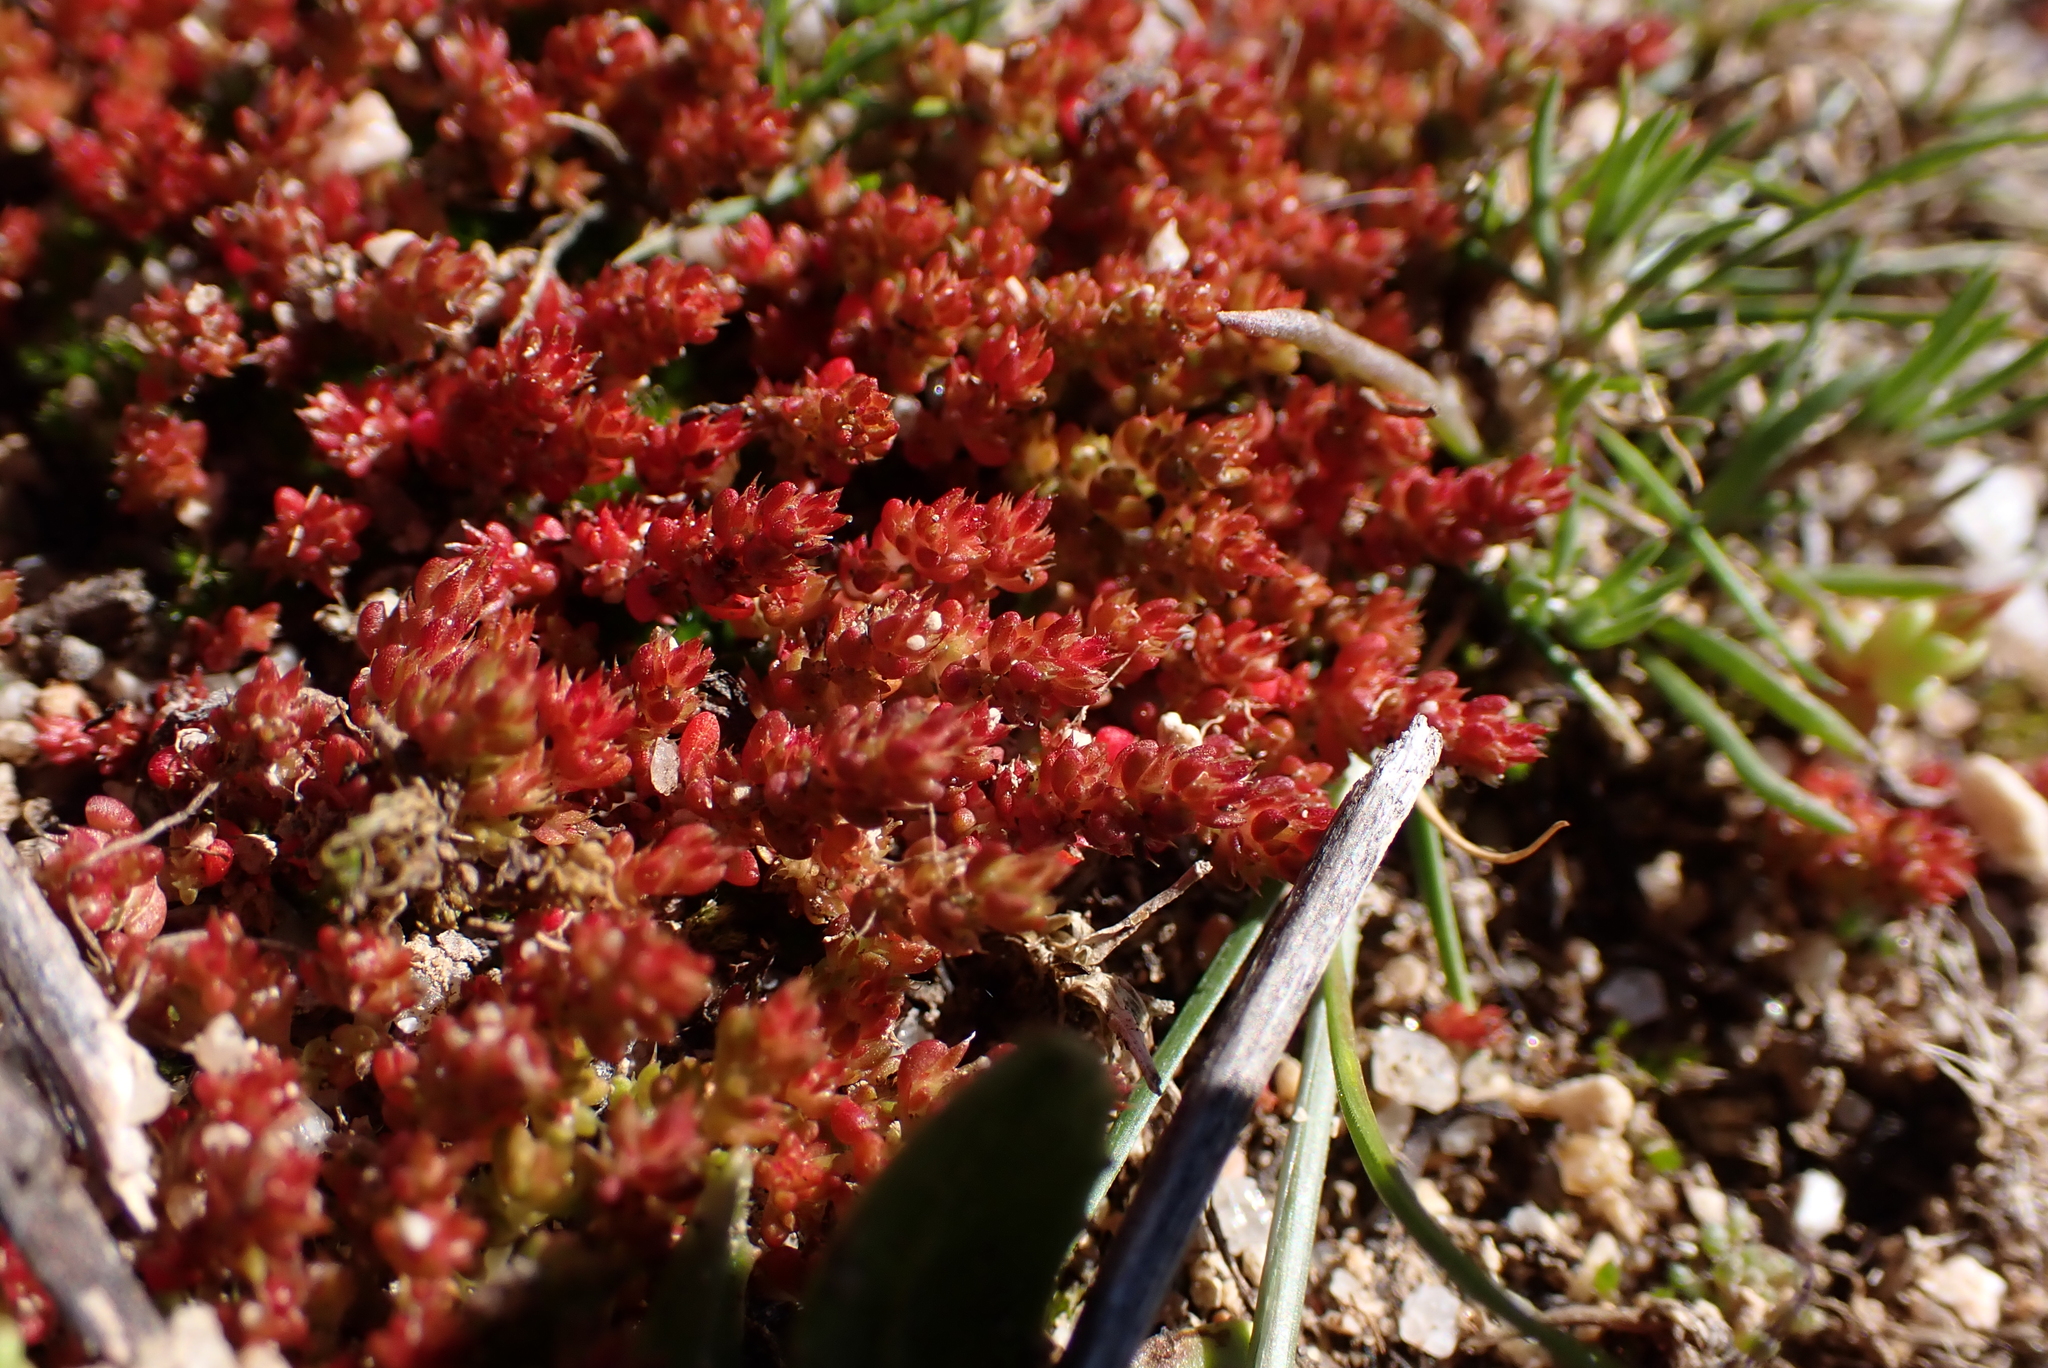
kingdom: Plantae
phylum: Tracheophyta
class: Magnoliopsida
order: Saxifragales
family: Crassulaceae
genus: Crassula
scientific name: Crassula tillaea
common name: Mossy stonecrop
